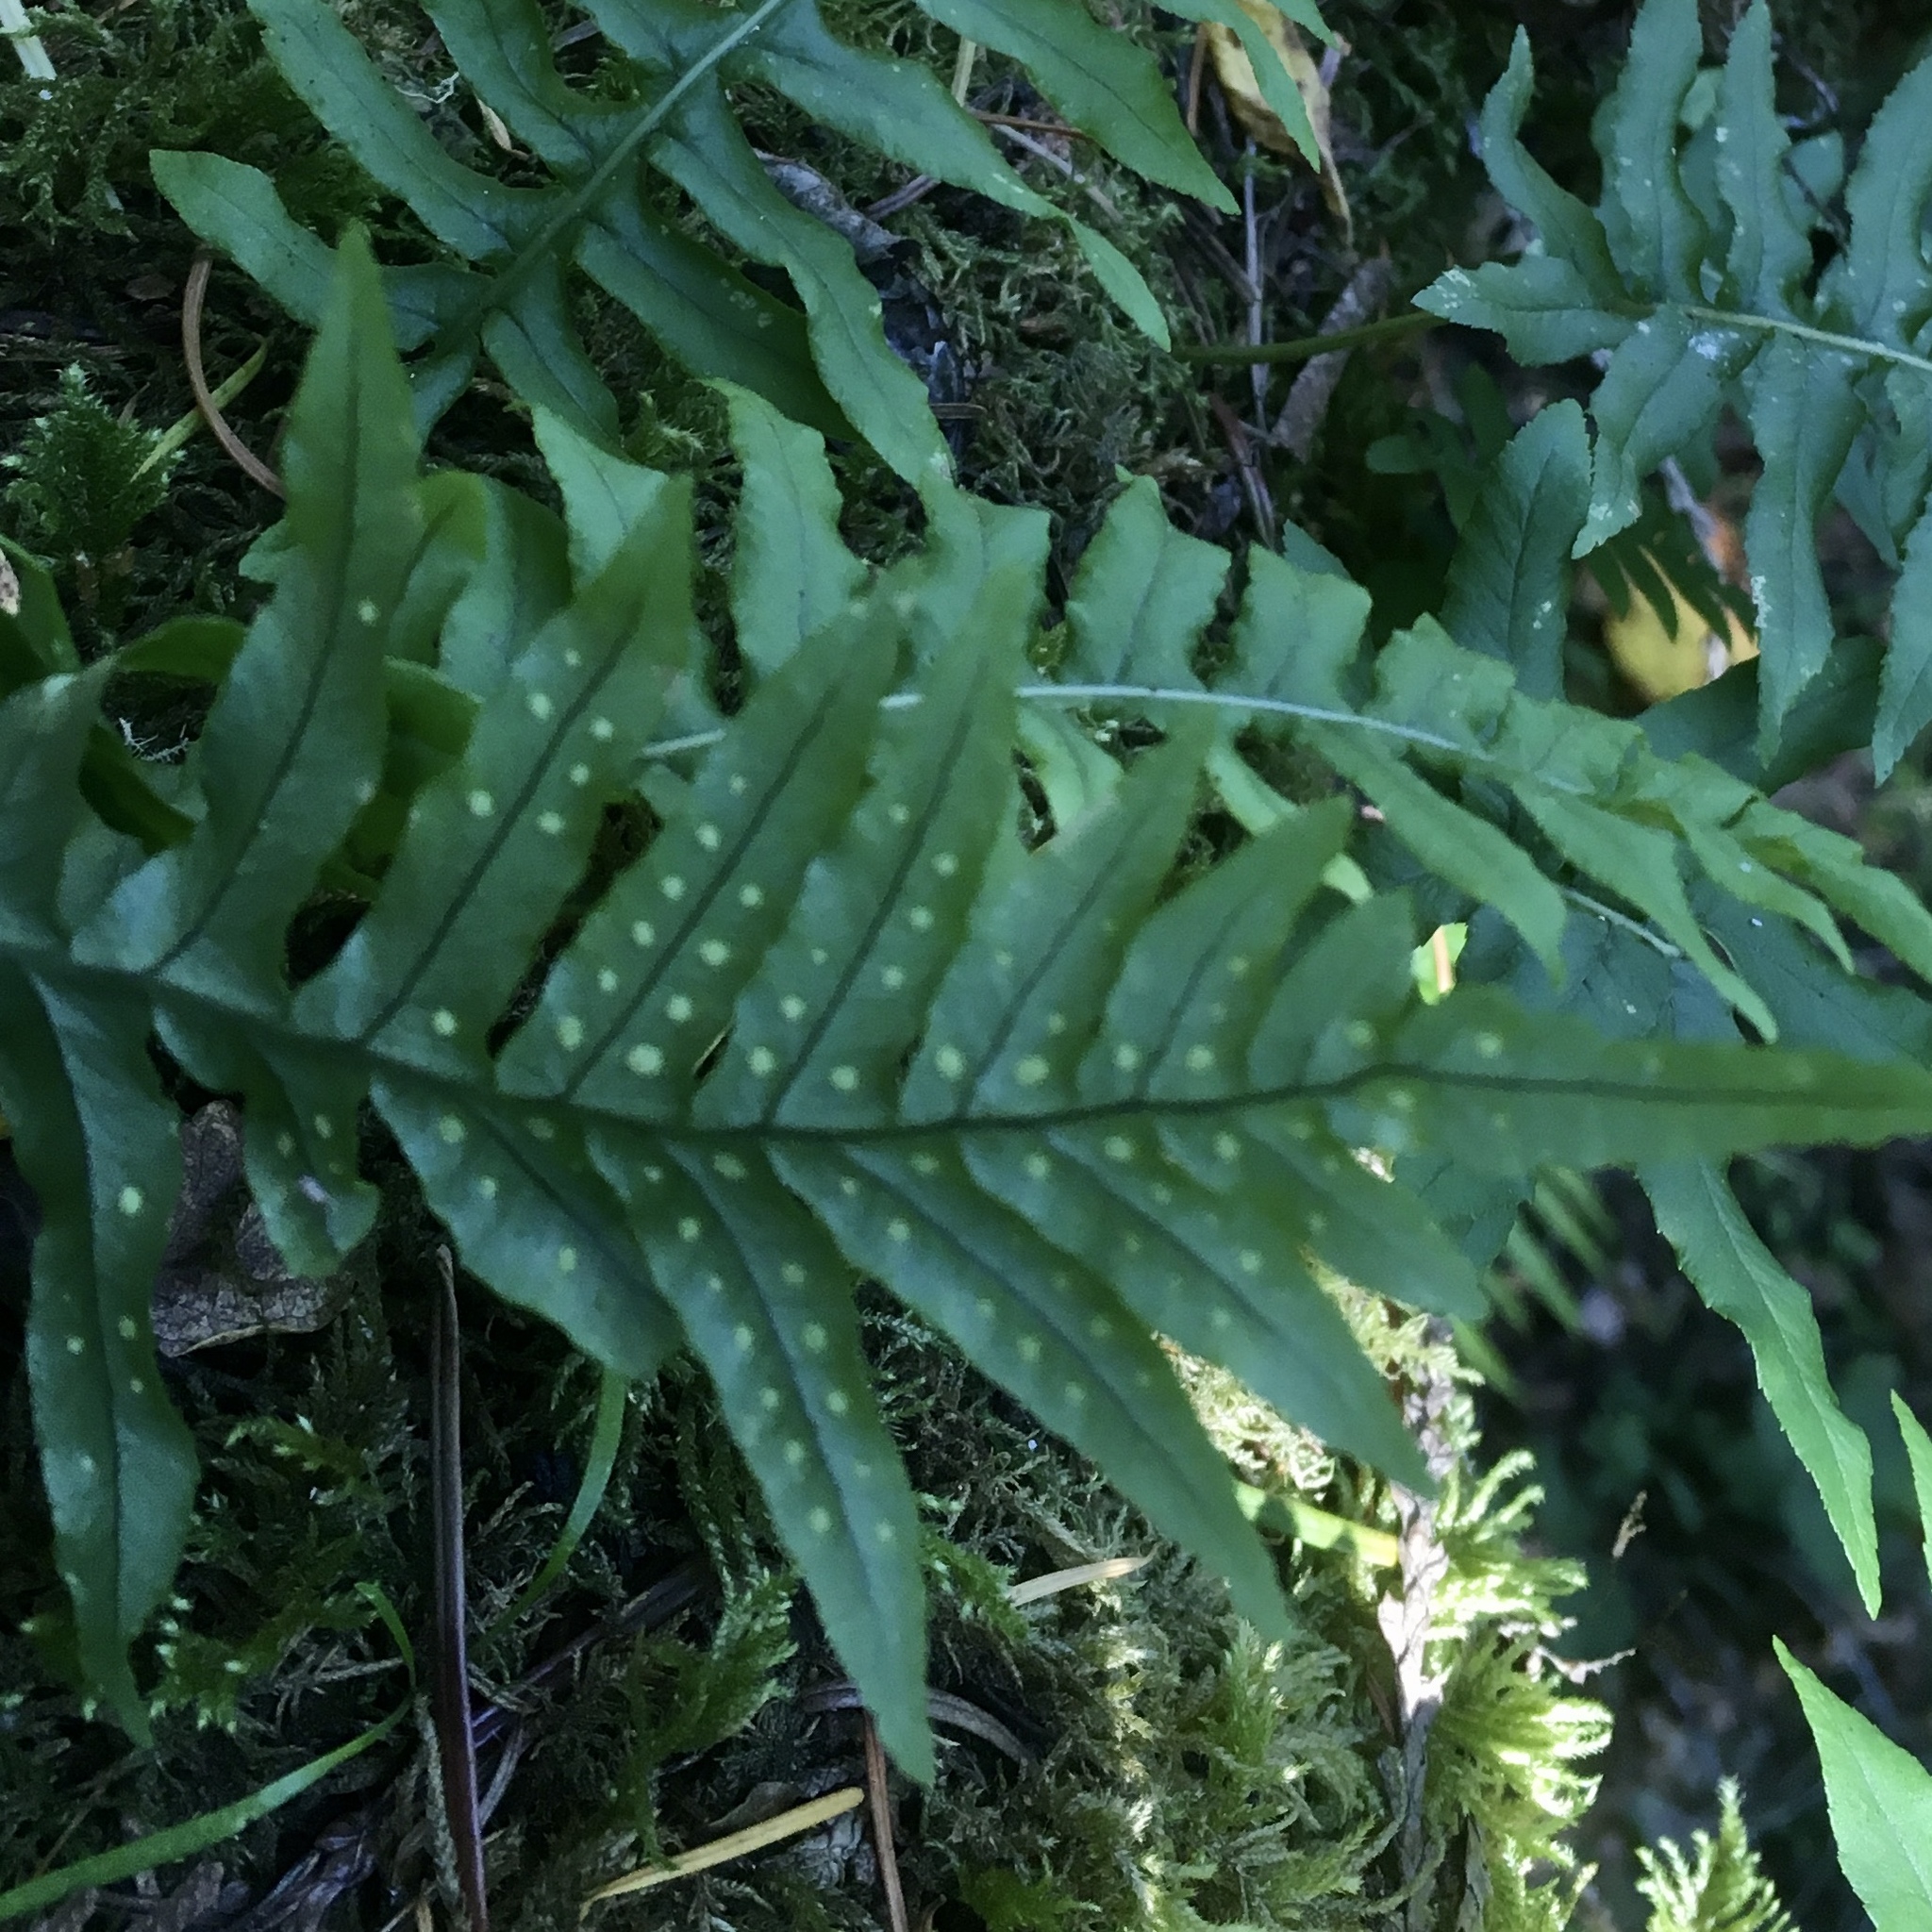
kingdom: Plantae
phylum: Tracheophyta
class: Polypodiopsida
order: Polypodiales
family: Polypodiaceae
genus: Polypodium
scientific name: Polypodium glycyrrhiza
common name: Licorice fern
